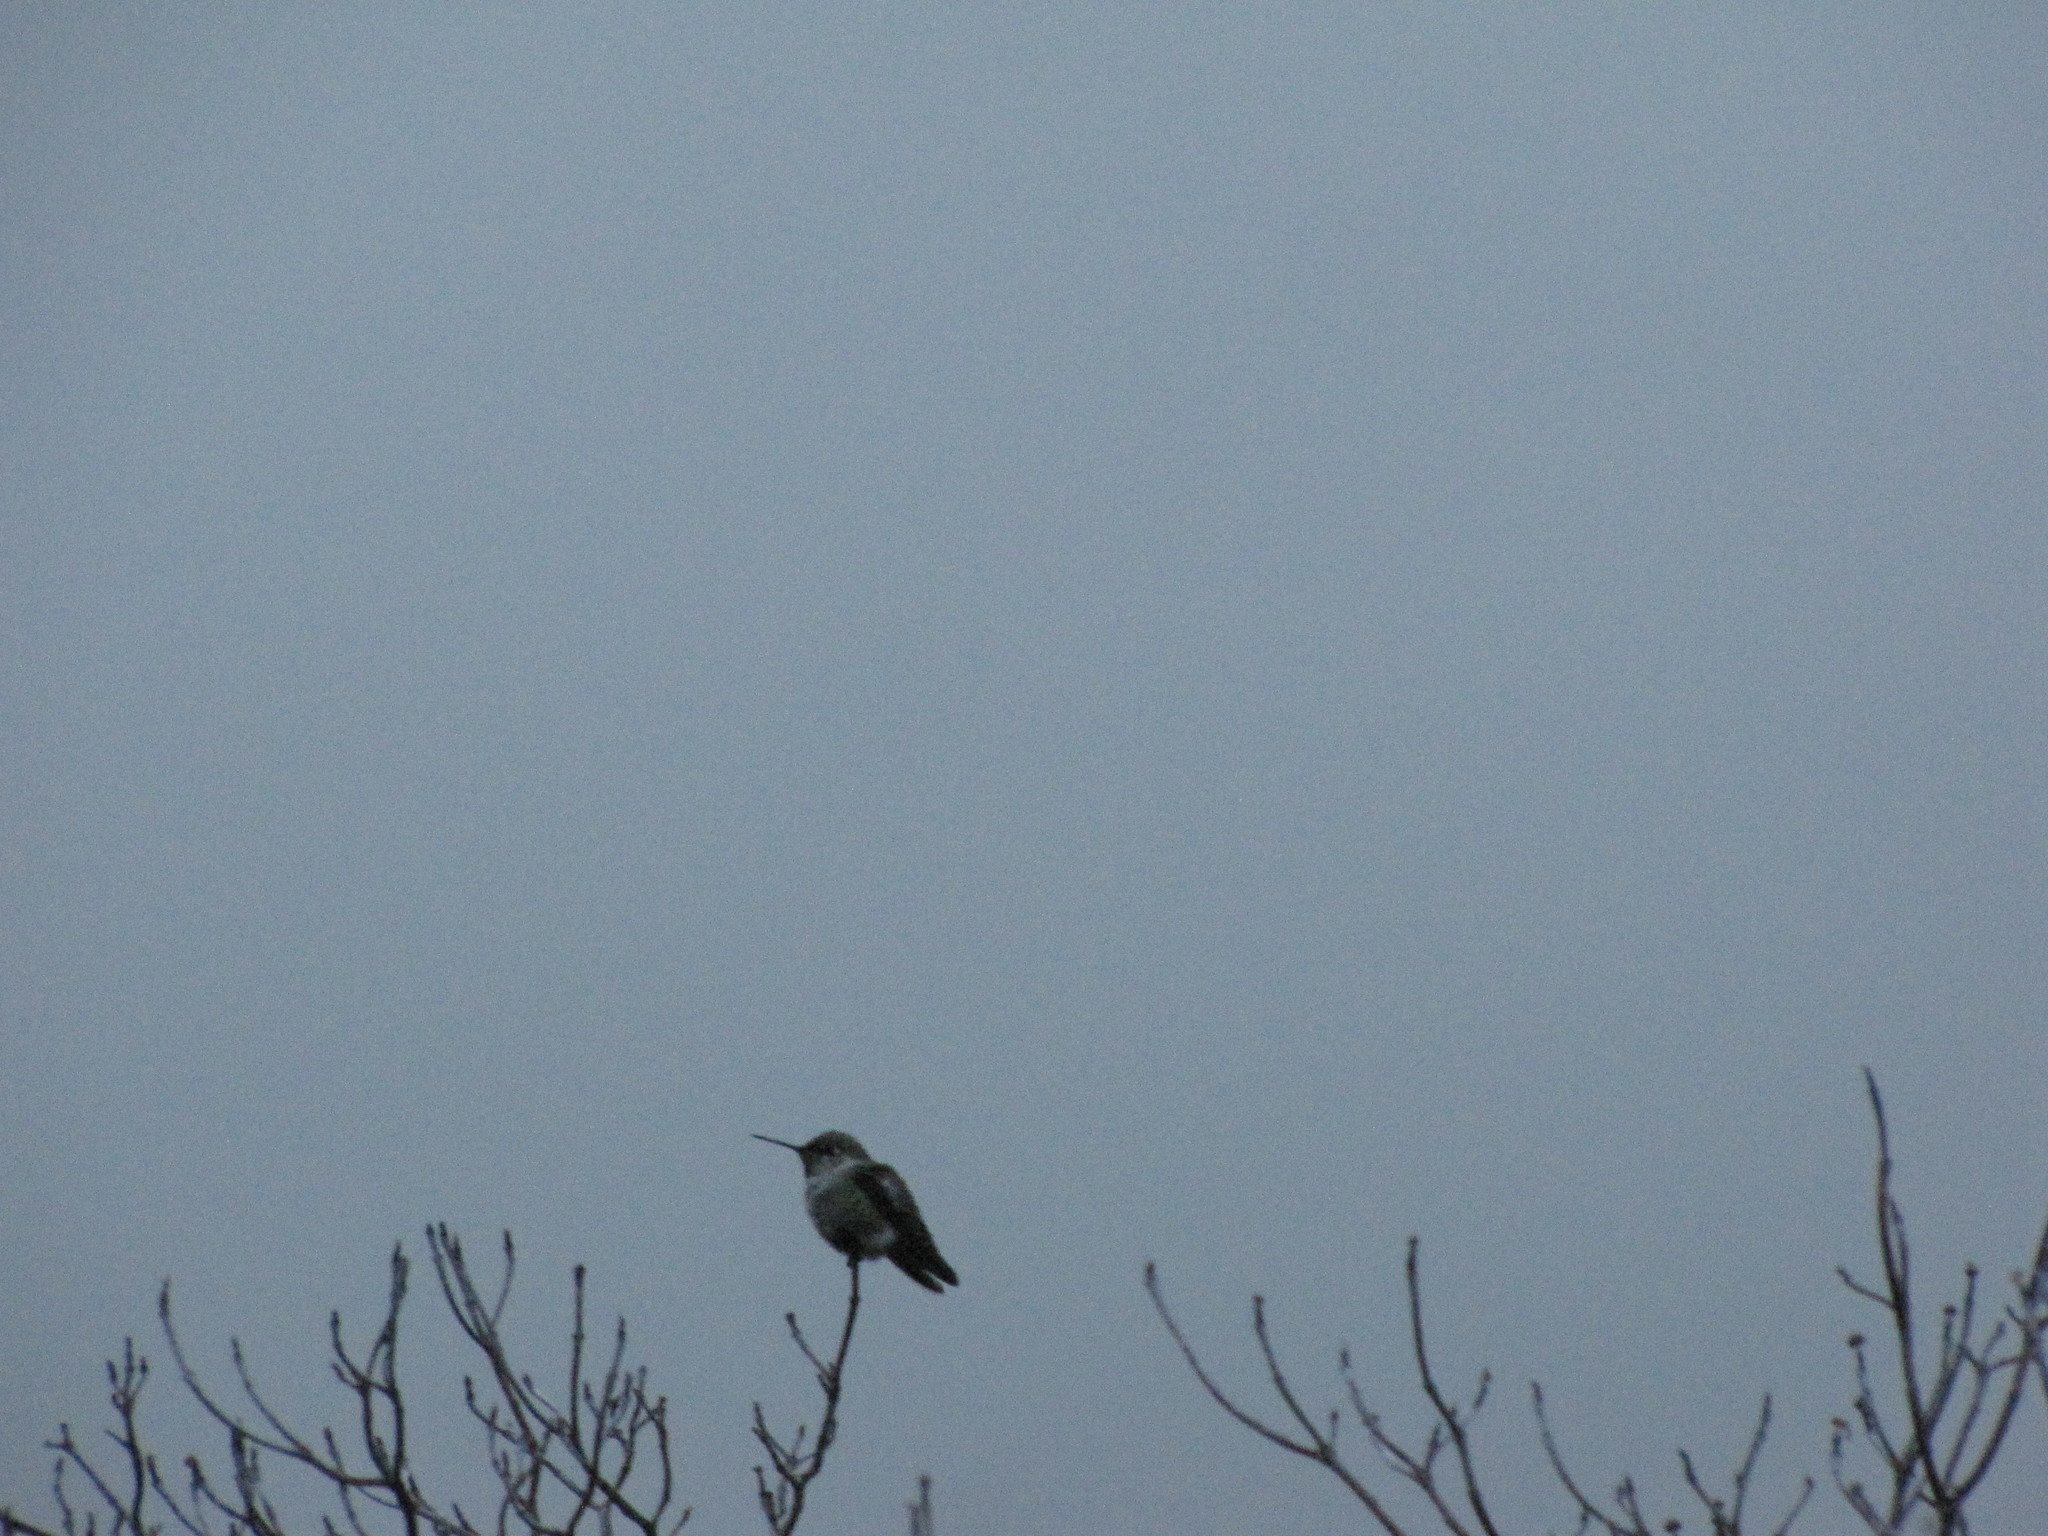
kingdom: Animalia
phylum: Chordata
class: Aves
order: Apodiformes
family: Trochilidae
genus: Calypte
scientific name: Calypte anna
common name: Anna's hummingbird
